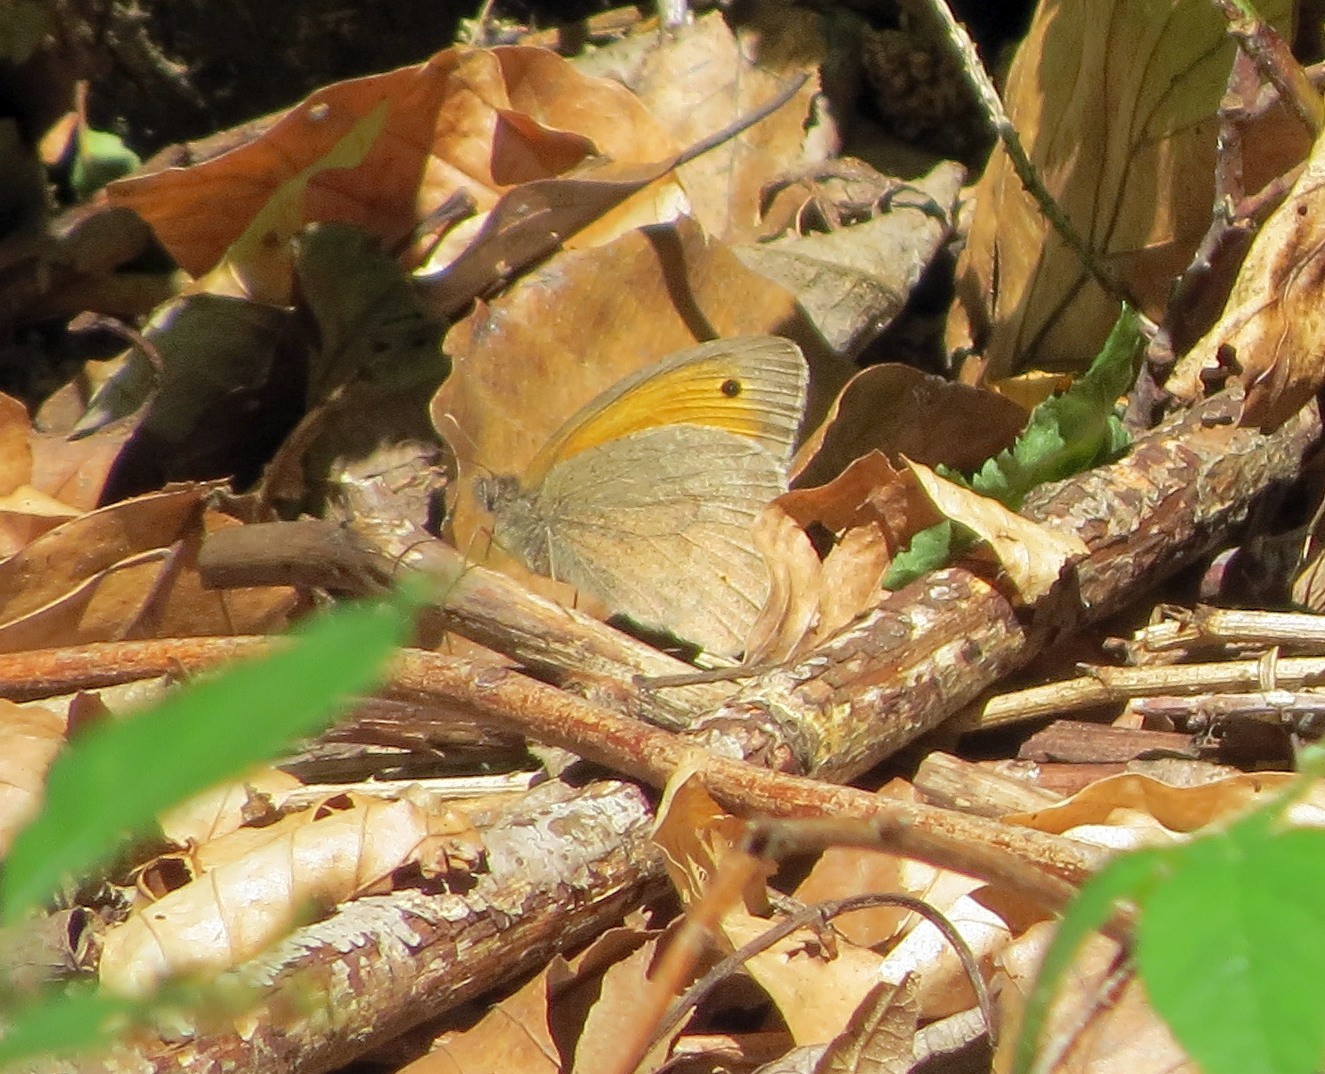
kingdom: Animalia
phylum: Arthropoda
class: Insecta
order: Lepidoptera
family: Nymphalidae
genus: Maniola
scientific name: Maniola jurtina
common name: Meadow brown
